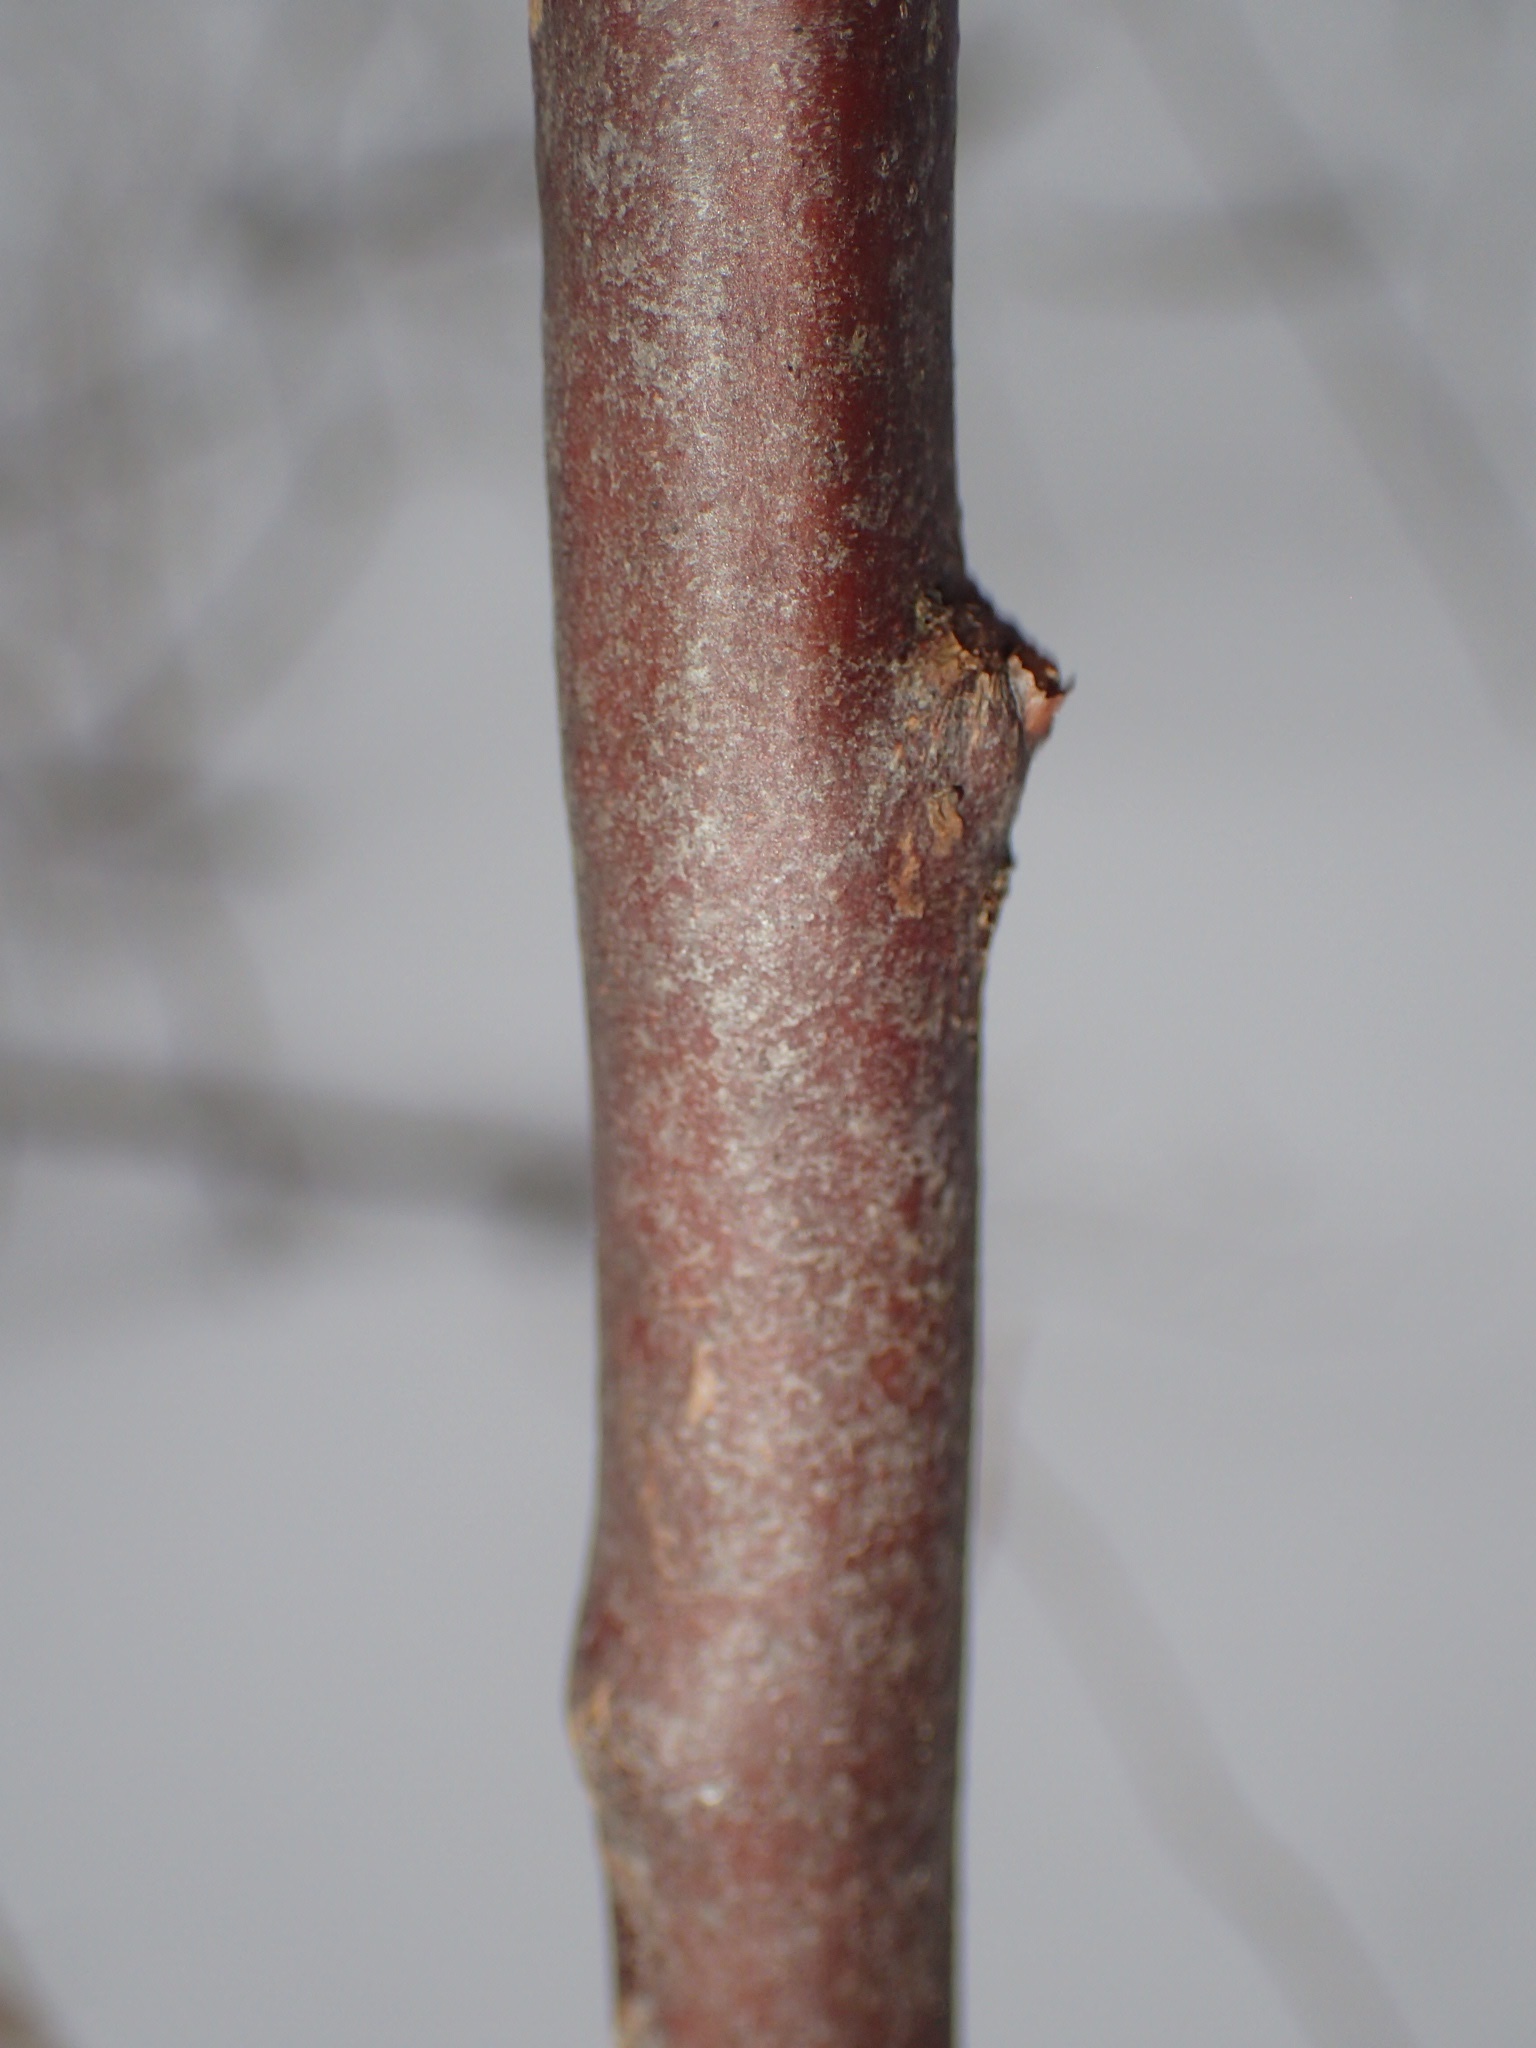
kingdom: Plantae
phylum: Tracheophyta
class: Magnoliopsida
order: Ericales
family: Ericaceae
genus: Eubotrys
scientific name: Eubotrys racemosa
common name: Fetterbush
